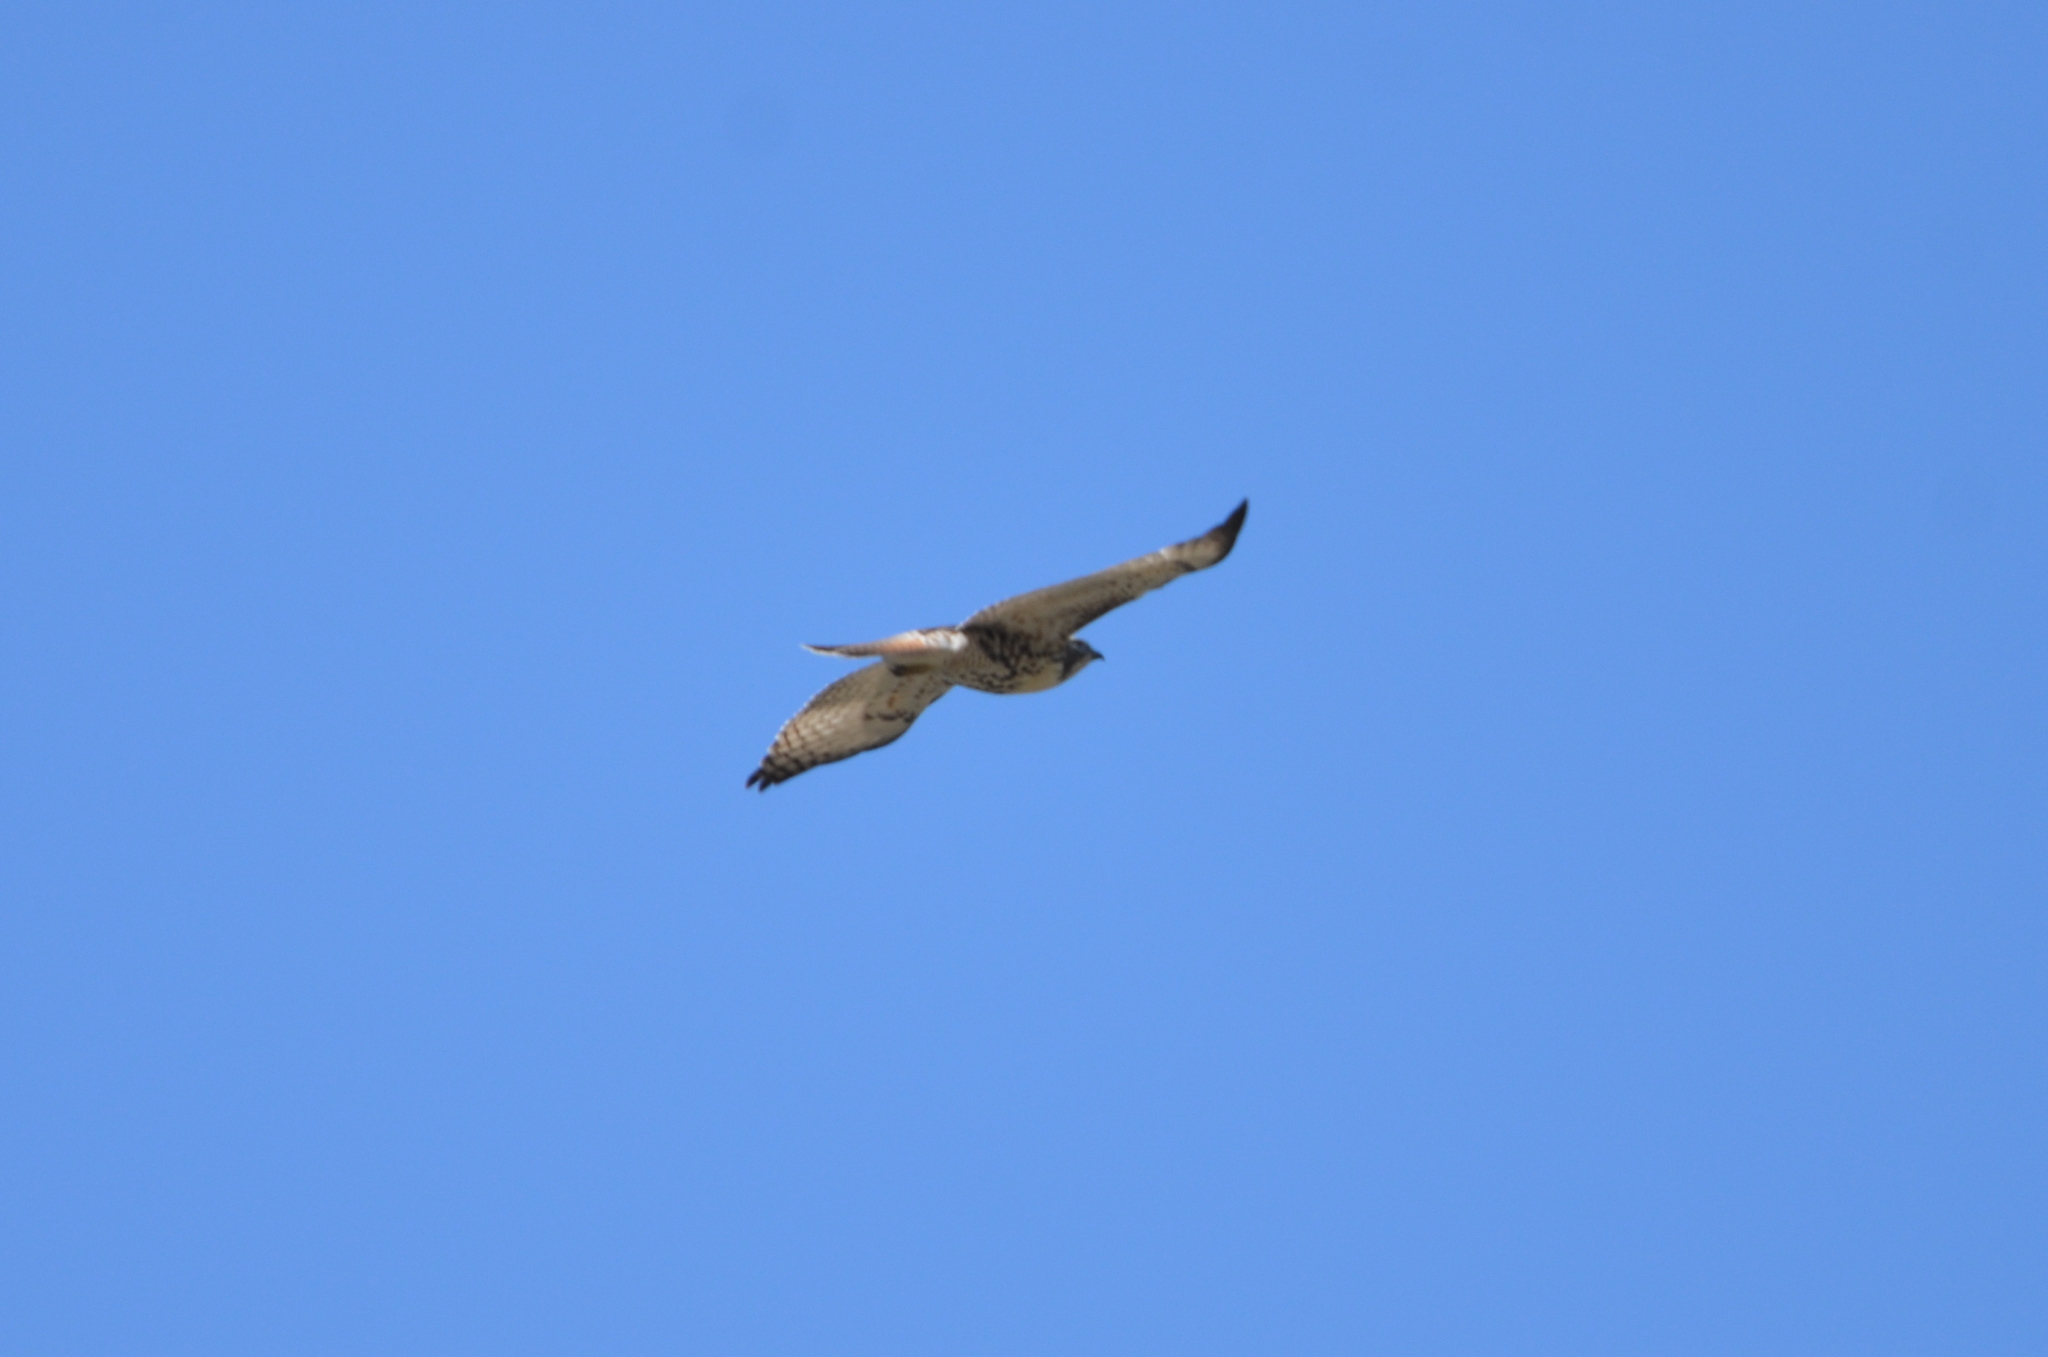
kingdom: Animalia
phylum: Chordata
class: Aves
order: Accipitriformes
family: Accipitridae
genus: Buteo
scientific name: Buteo jamaicensis
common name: Red-tailed hawk
